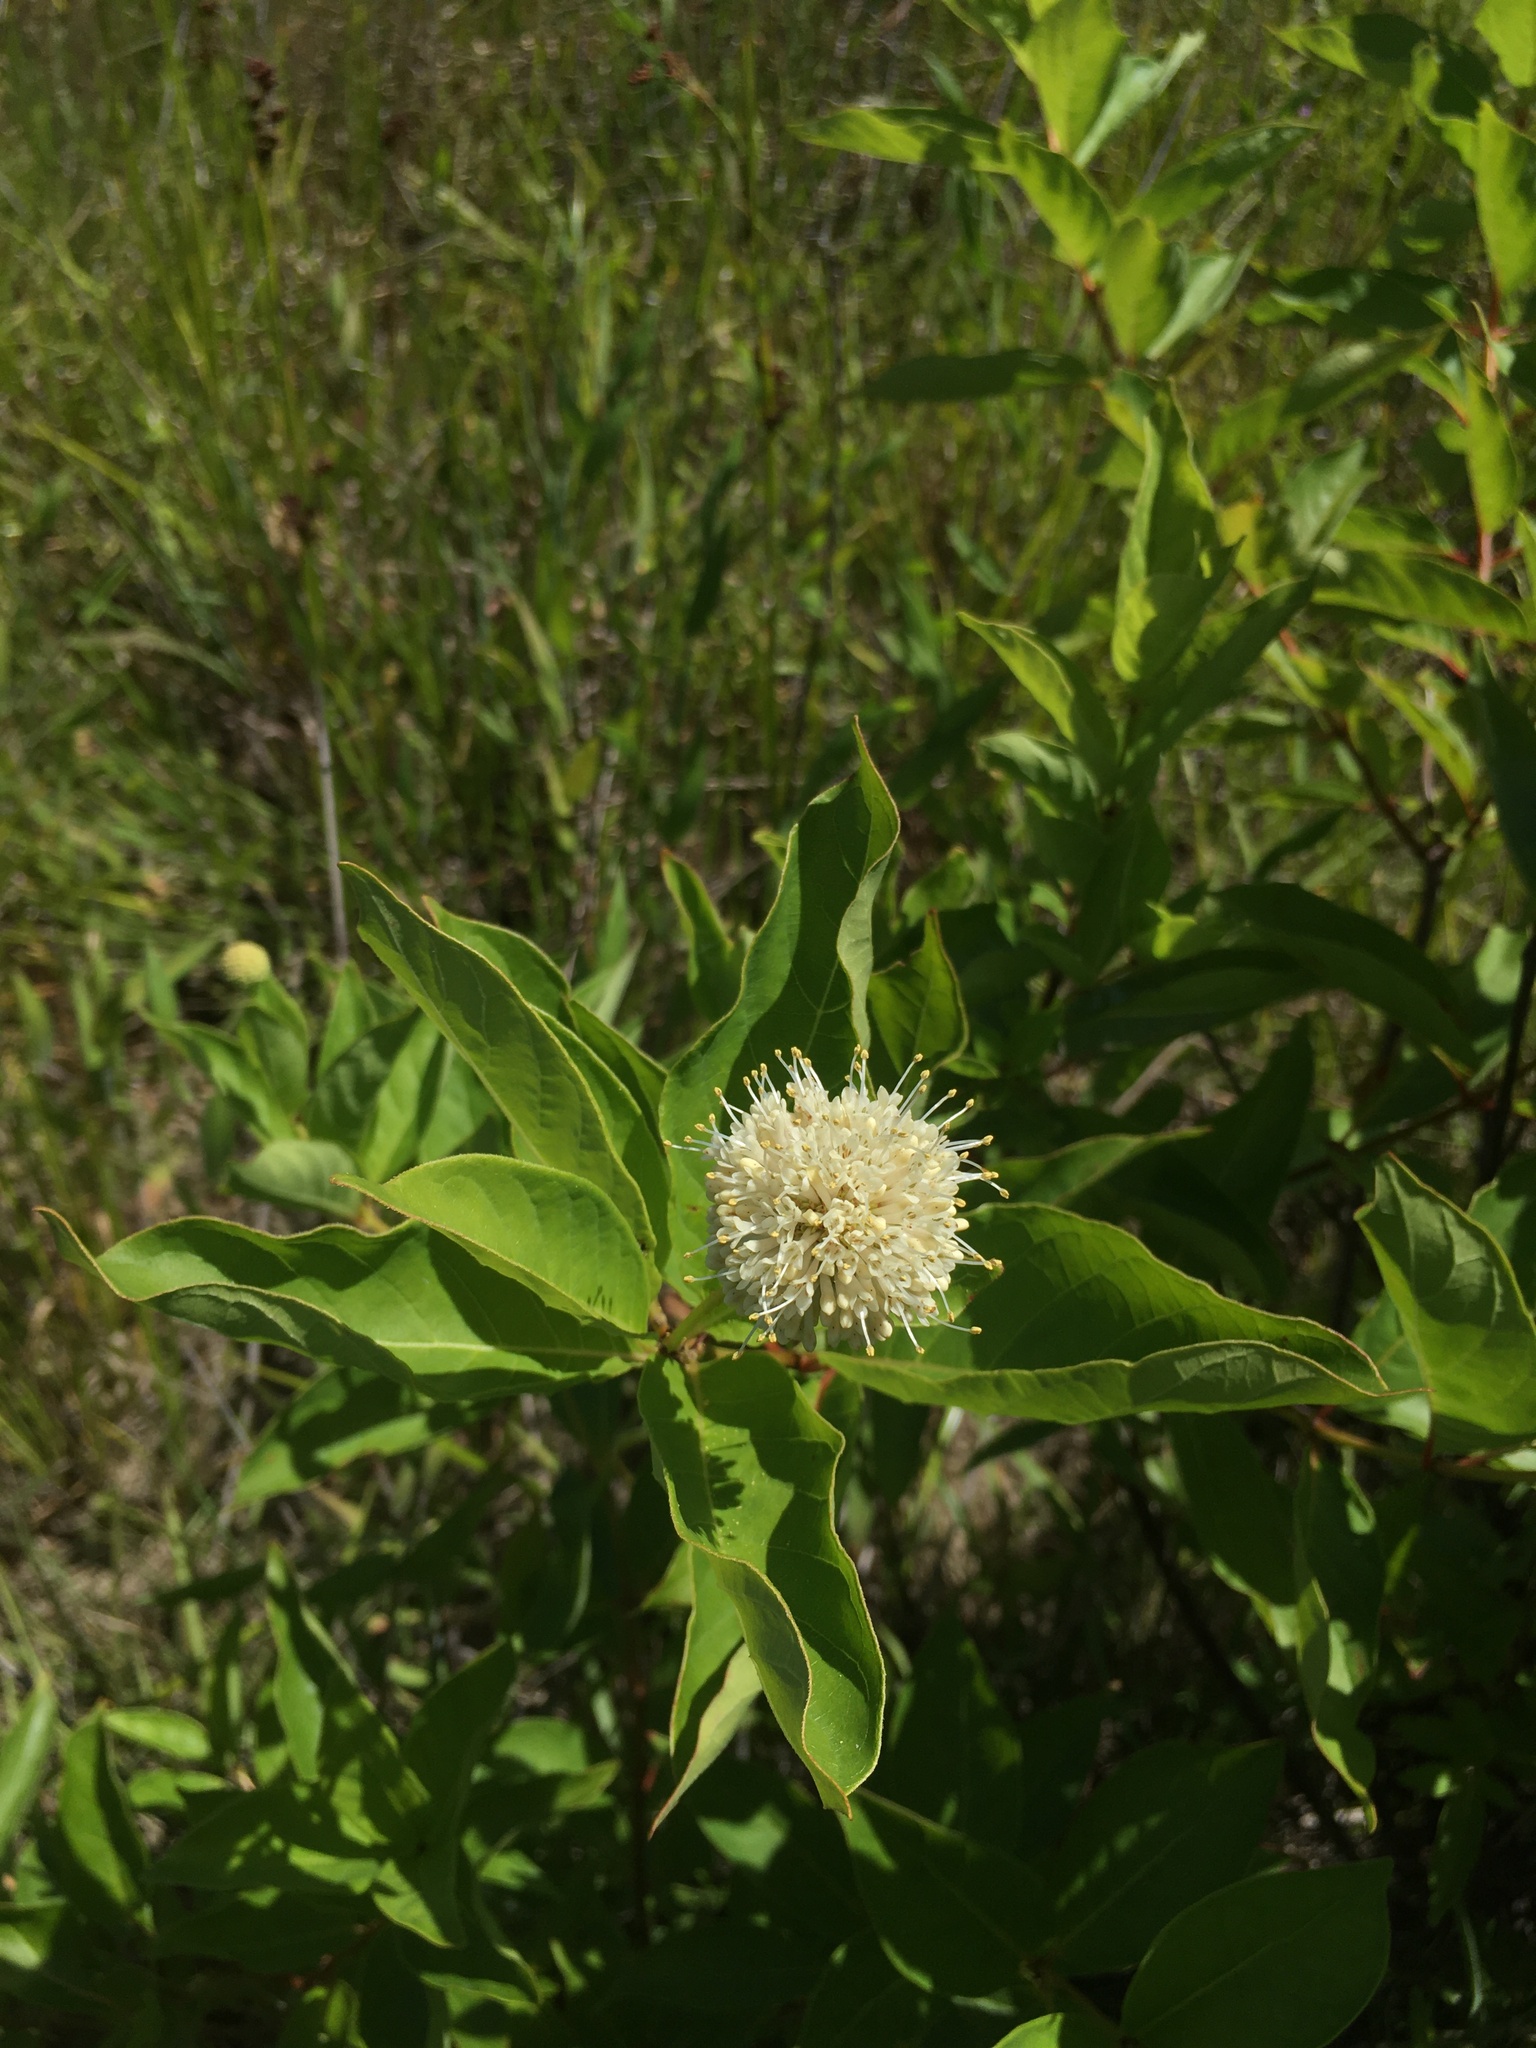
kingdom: Plantae
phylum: Tracheophyta
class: Magnoliopsida
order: Gentianales
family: Rubiaceae
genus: Cephalanthus
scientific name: Cephalanthus occidentalis
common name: Button-willow
